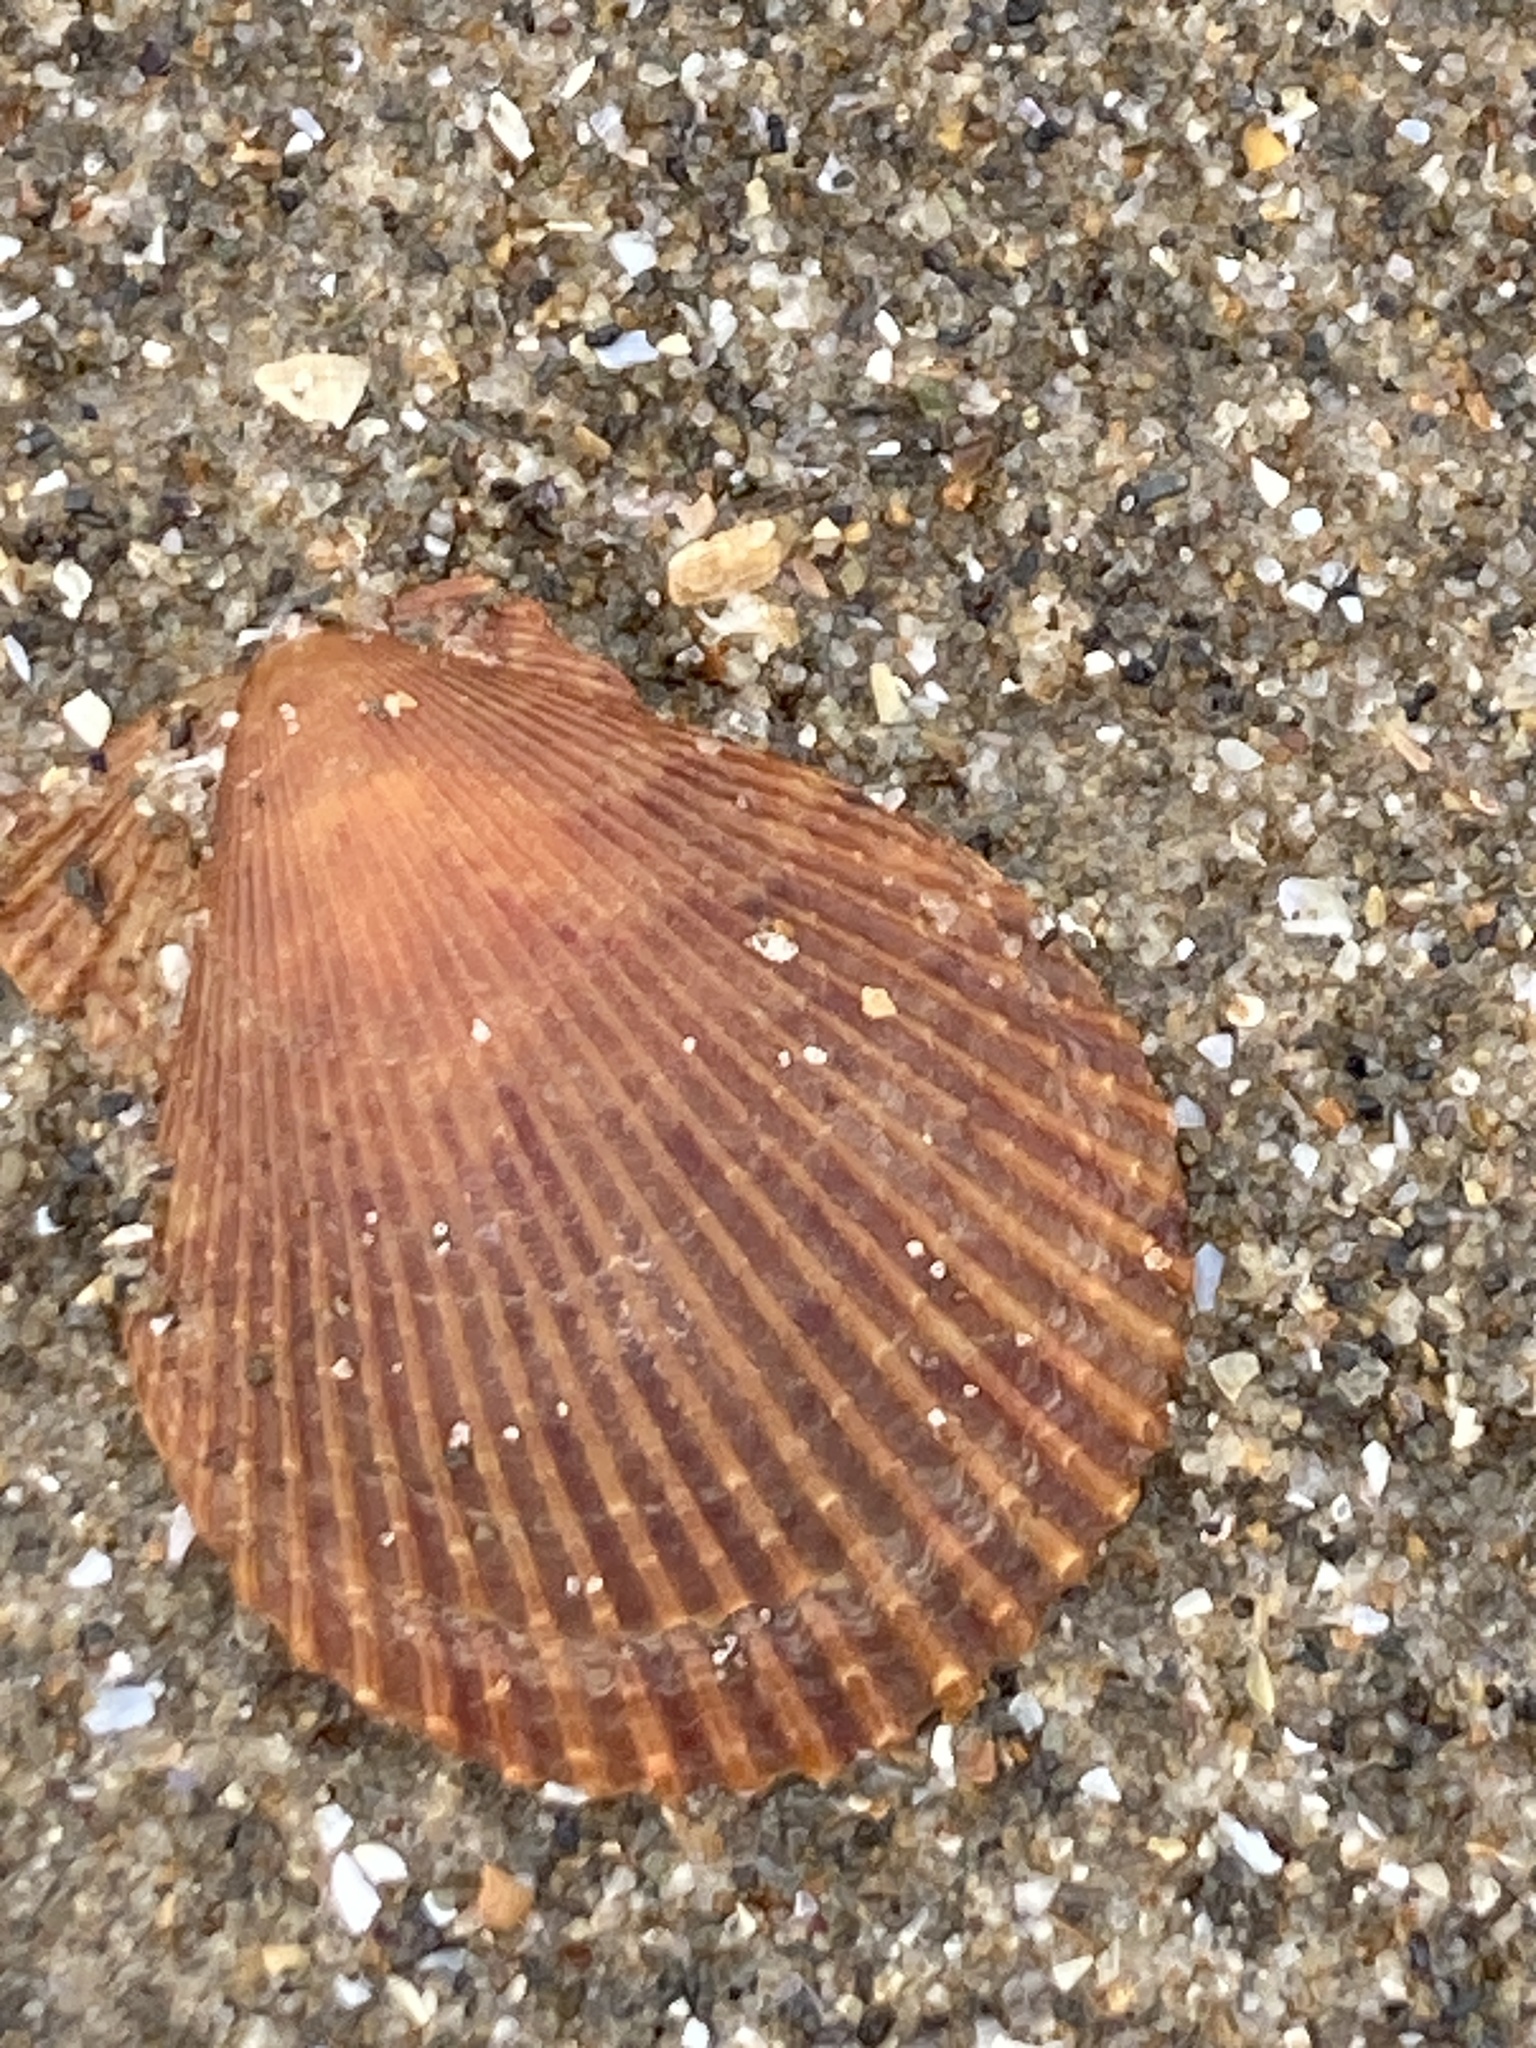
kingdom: Animalia
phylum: Mollusca
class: Bivalvia
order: Pectinida
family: Pectinidae
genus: Mimachlamys
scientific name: Mimachlamys varia
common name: Variegated scallop
